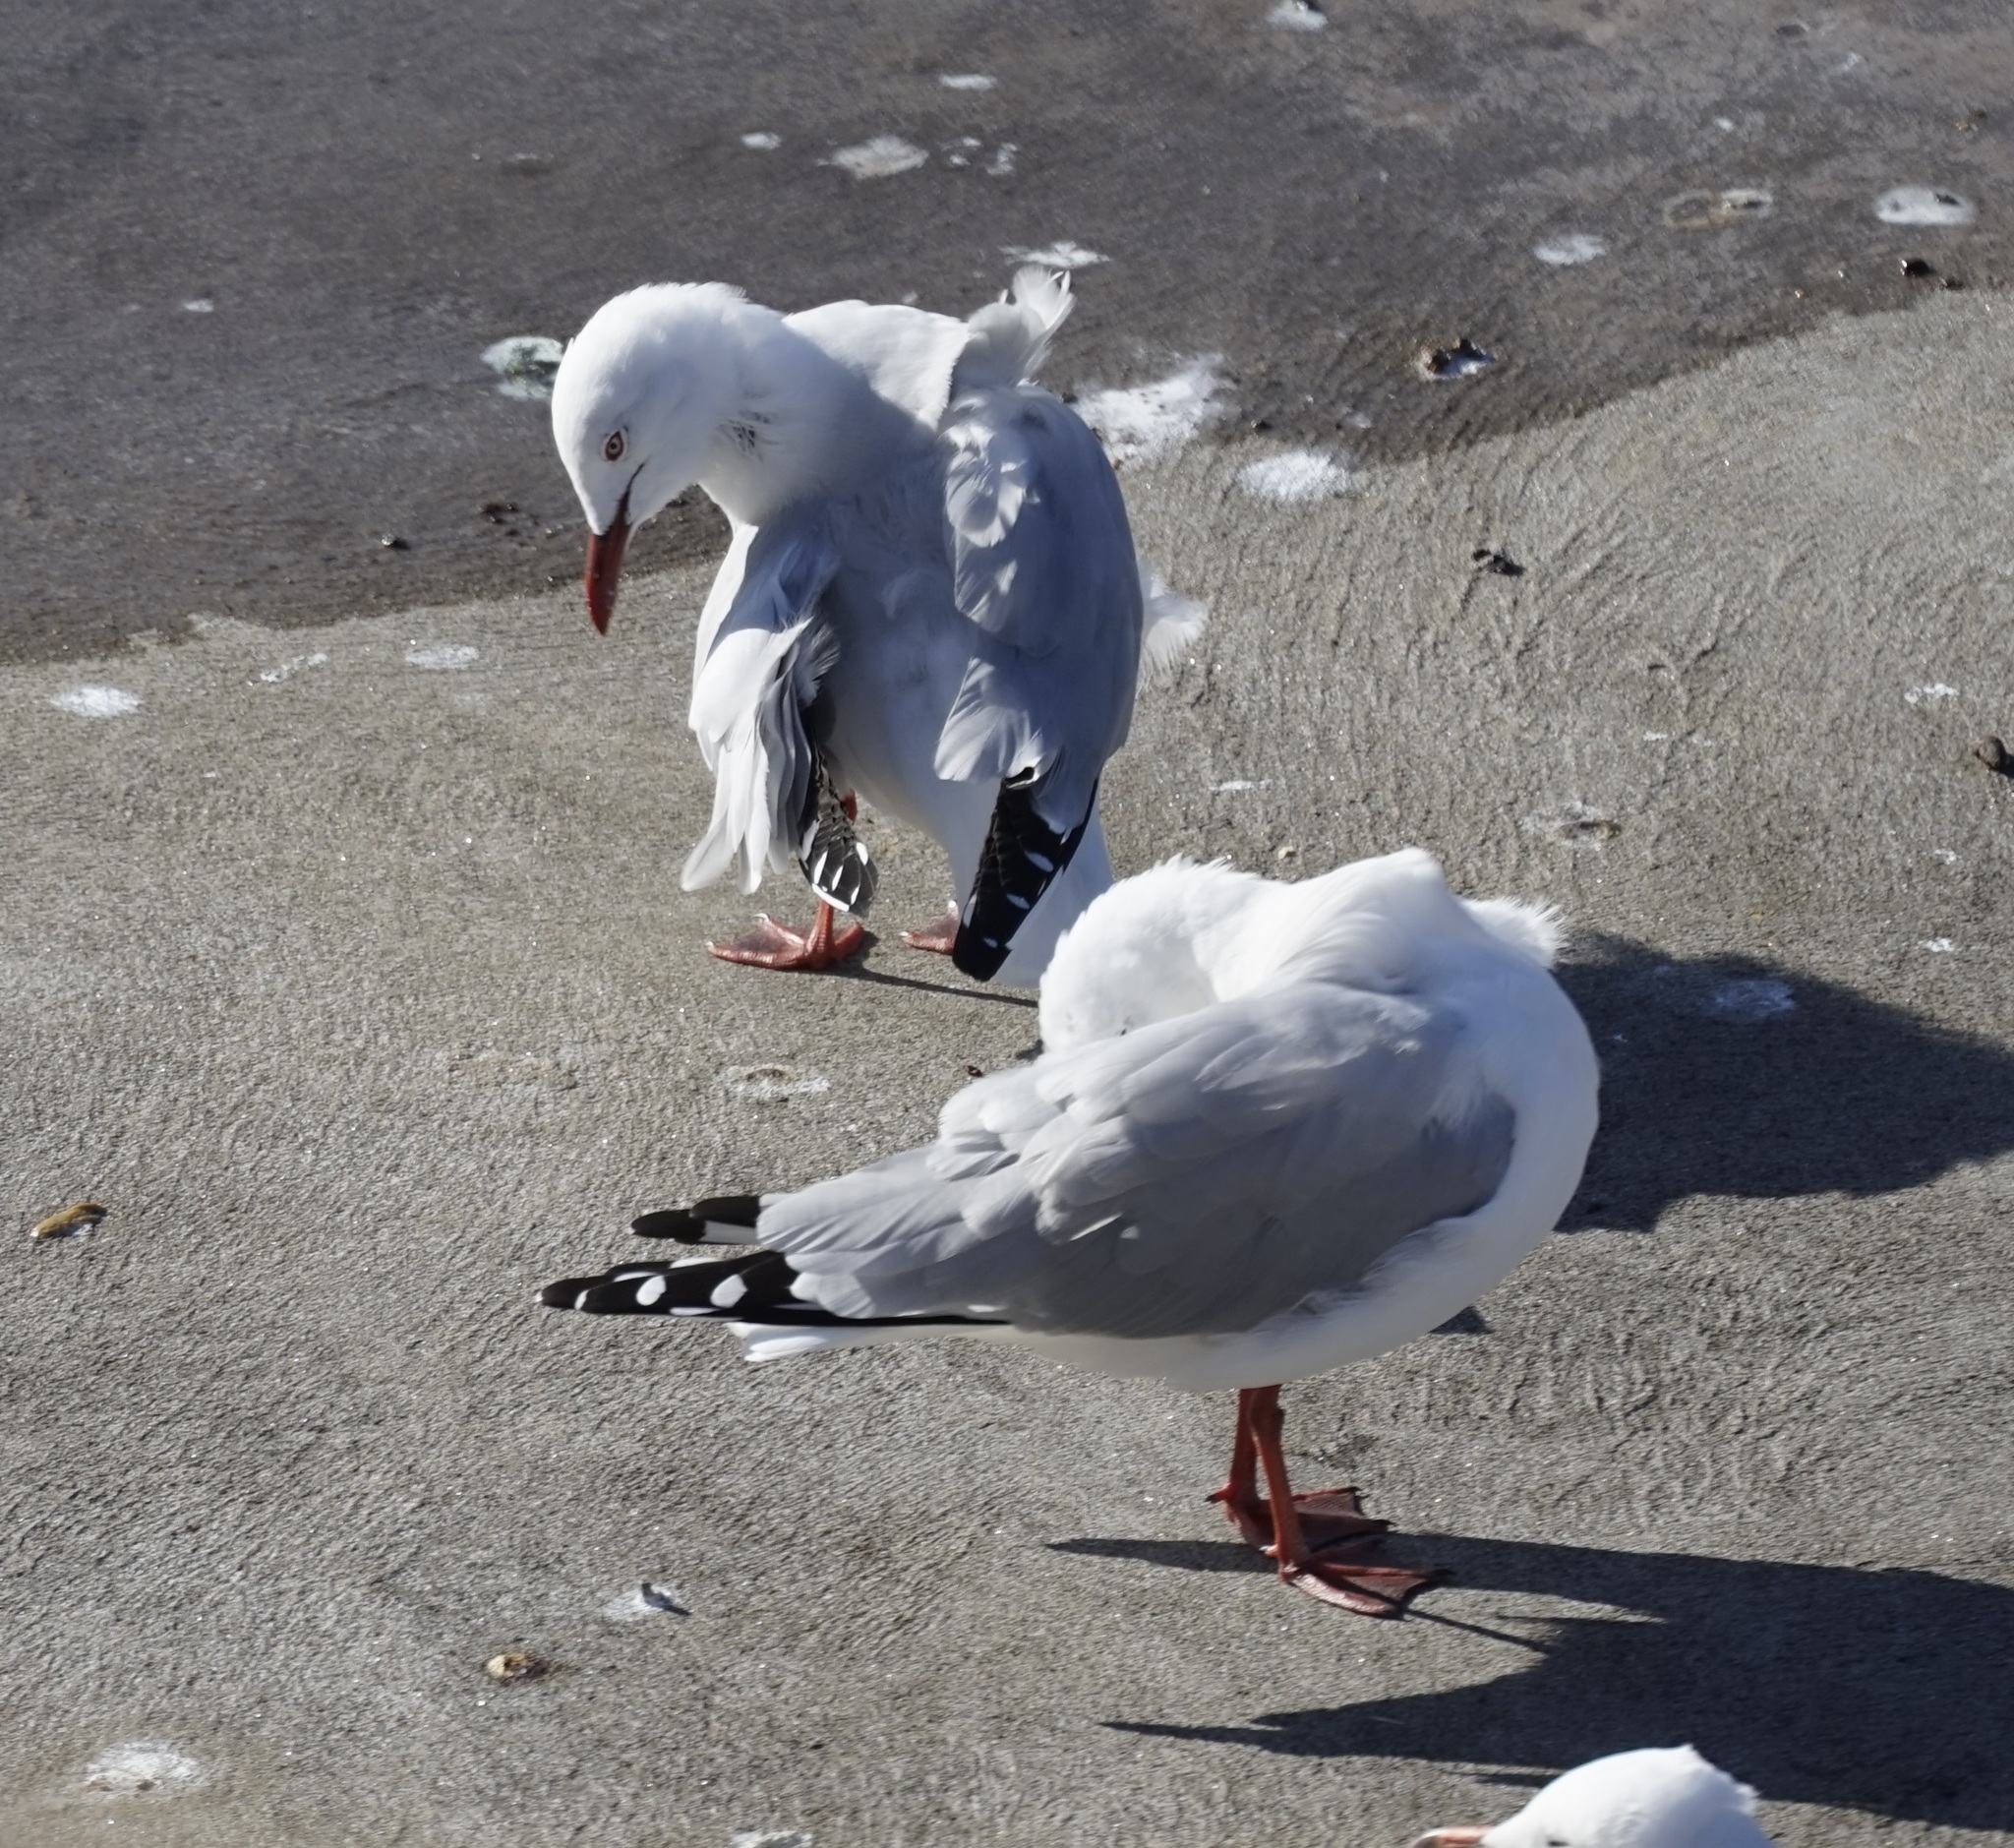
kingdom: Animalia
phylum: Chordata
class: Aves
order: Charadriiformes
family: Laridae
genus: Chroicocephalus
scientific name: Chroicocephalus novaehollandiae
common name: Silver gull
